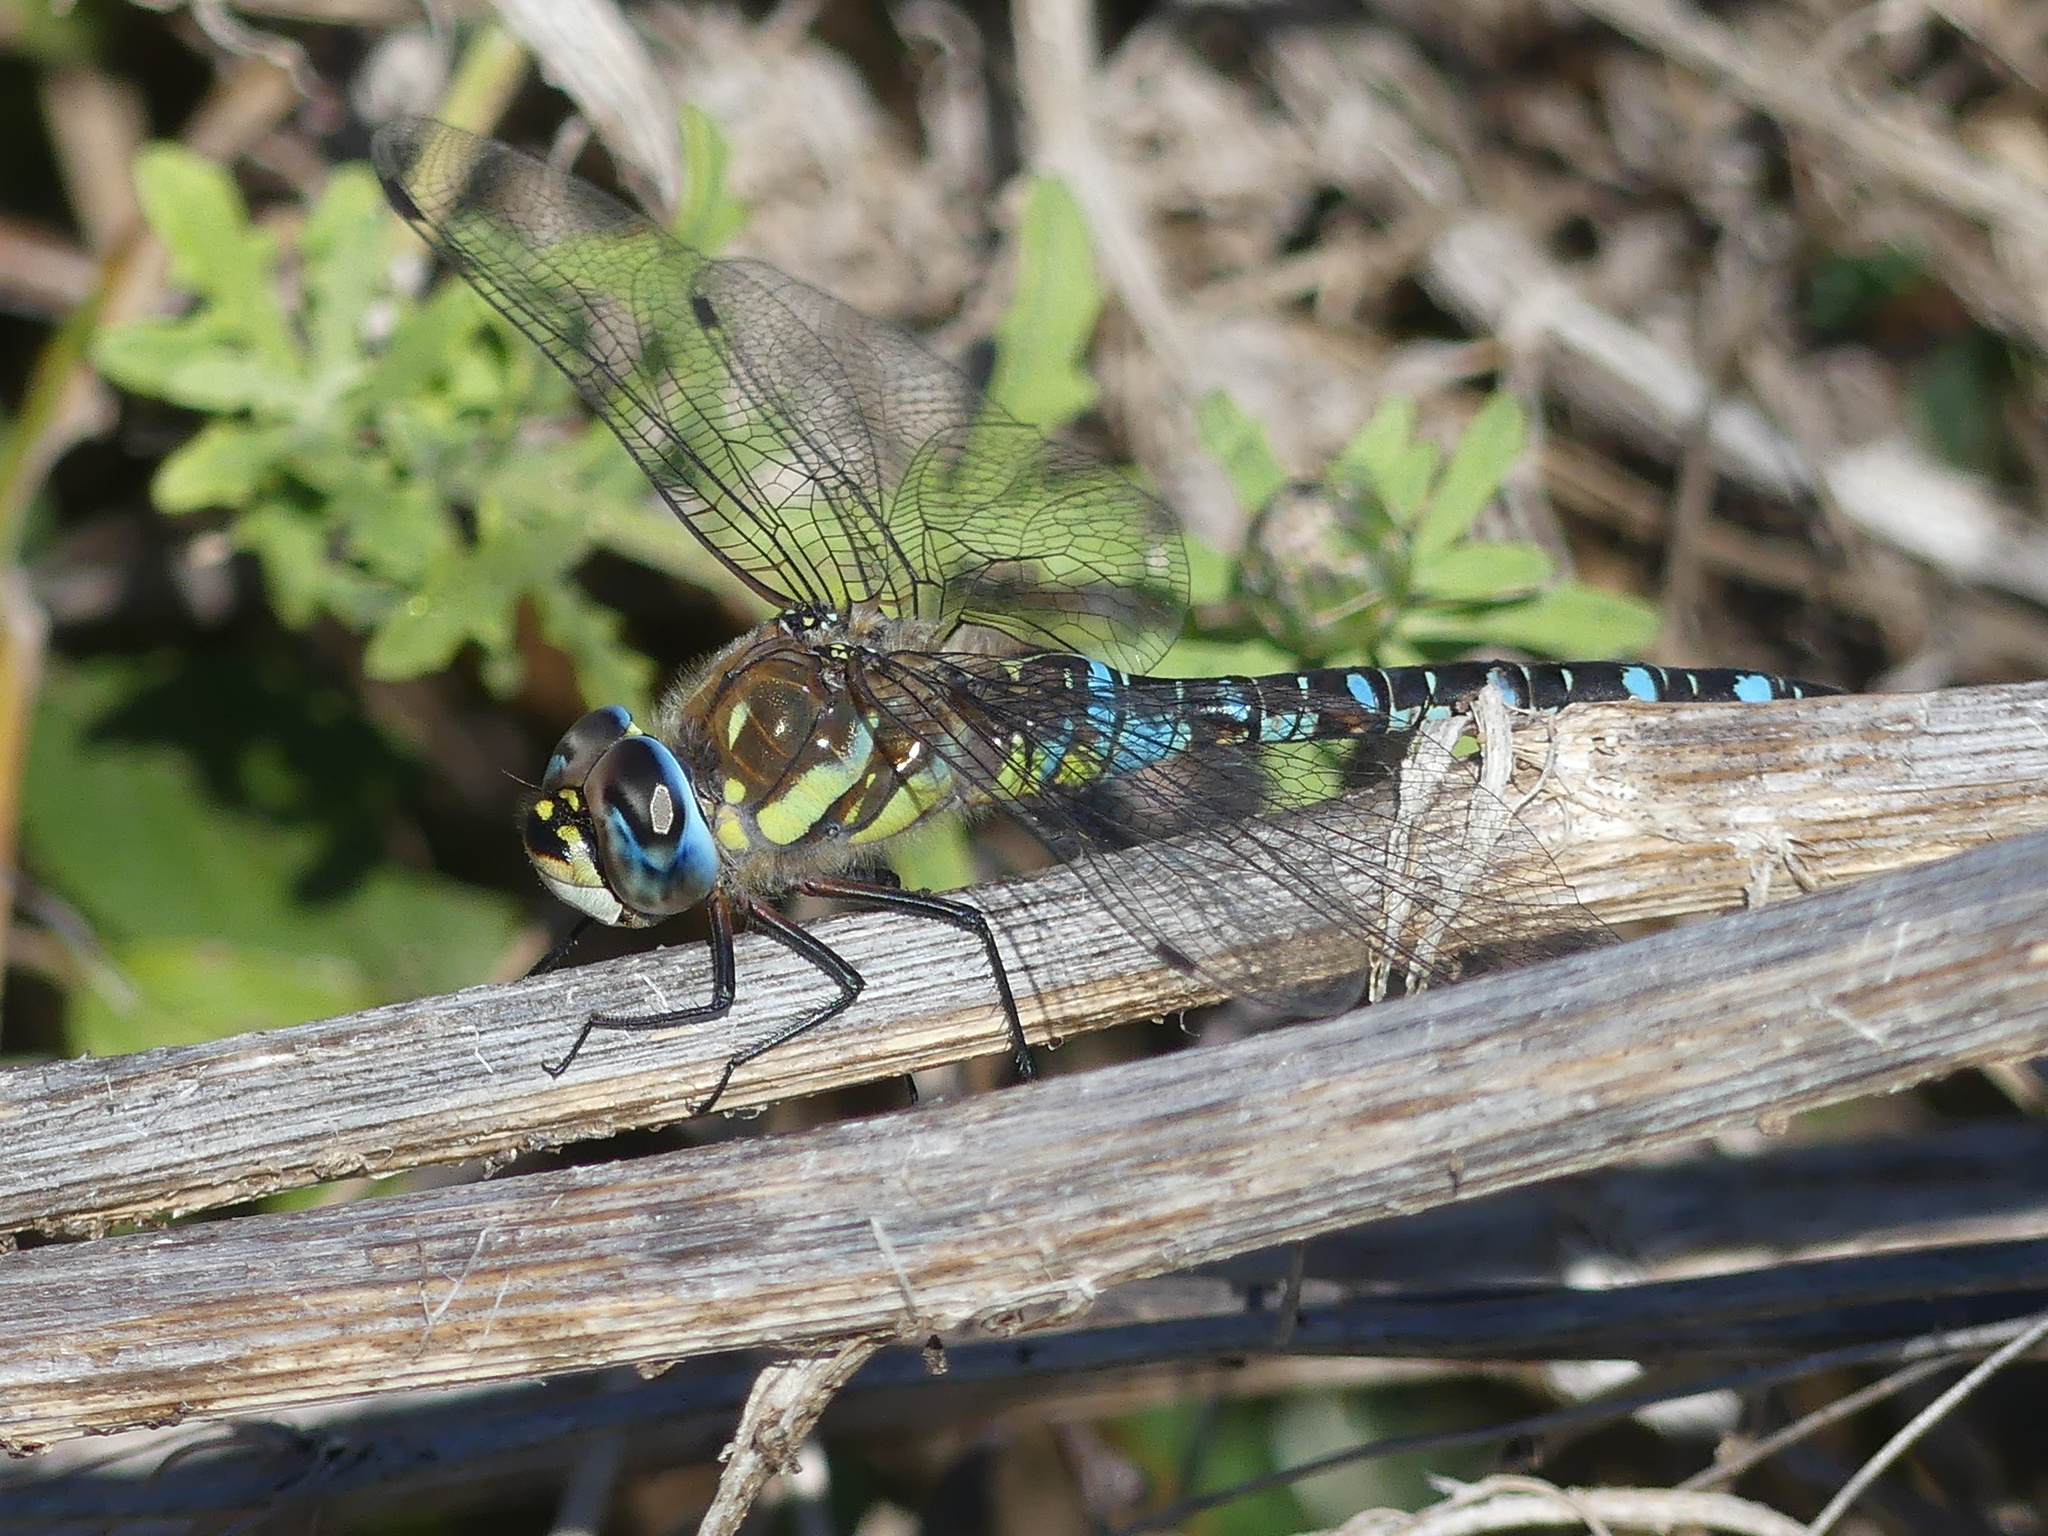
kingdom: Animalia
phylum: Arthropoda
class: Insecta
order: Odonata
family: Aeshnidae
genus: Aeshna
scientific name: Aeshna mixta
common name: Migrant hawker
